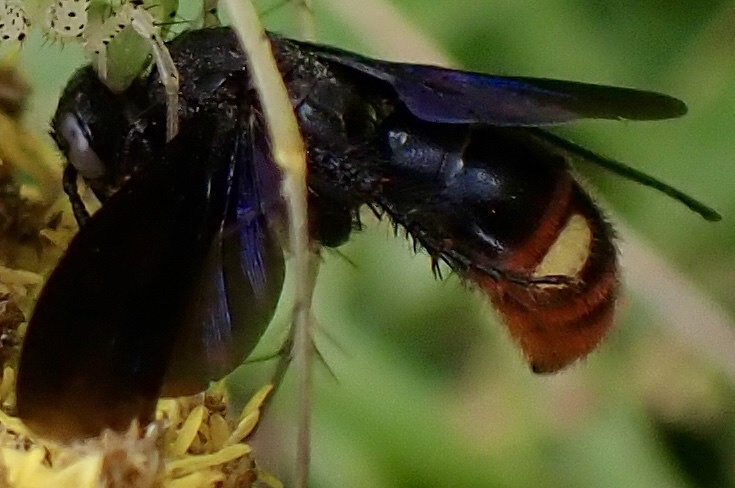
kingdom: Animalia
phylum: Arthropoda
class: Insecta
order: Hymenoptera
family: Scoliidae
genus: Scolia
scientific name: Scolia dubia
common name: Blue-winged scoliid wasp
